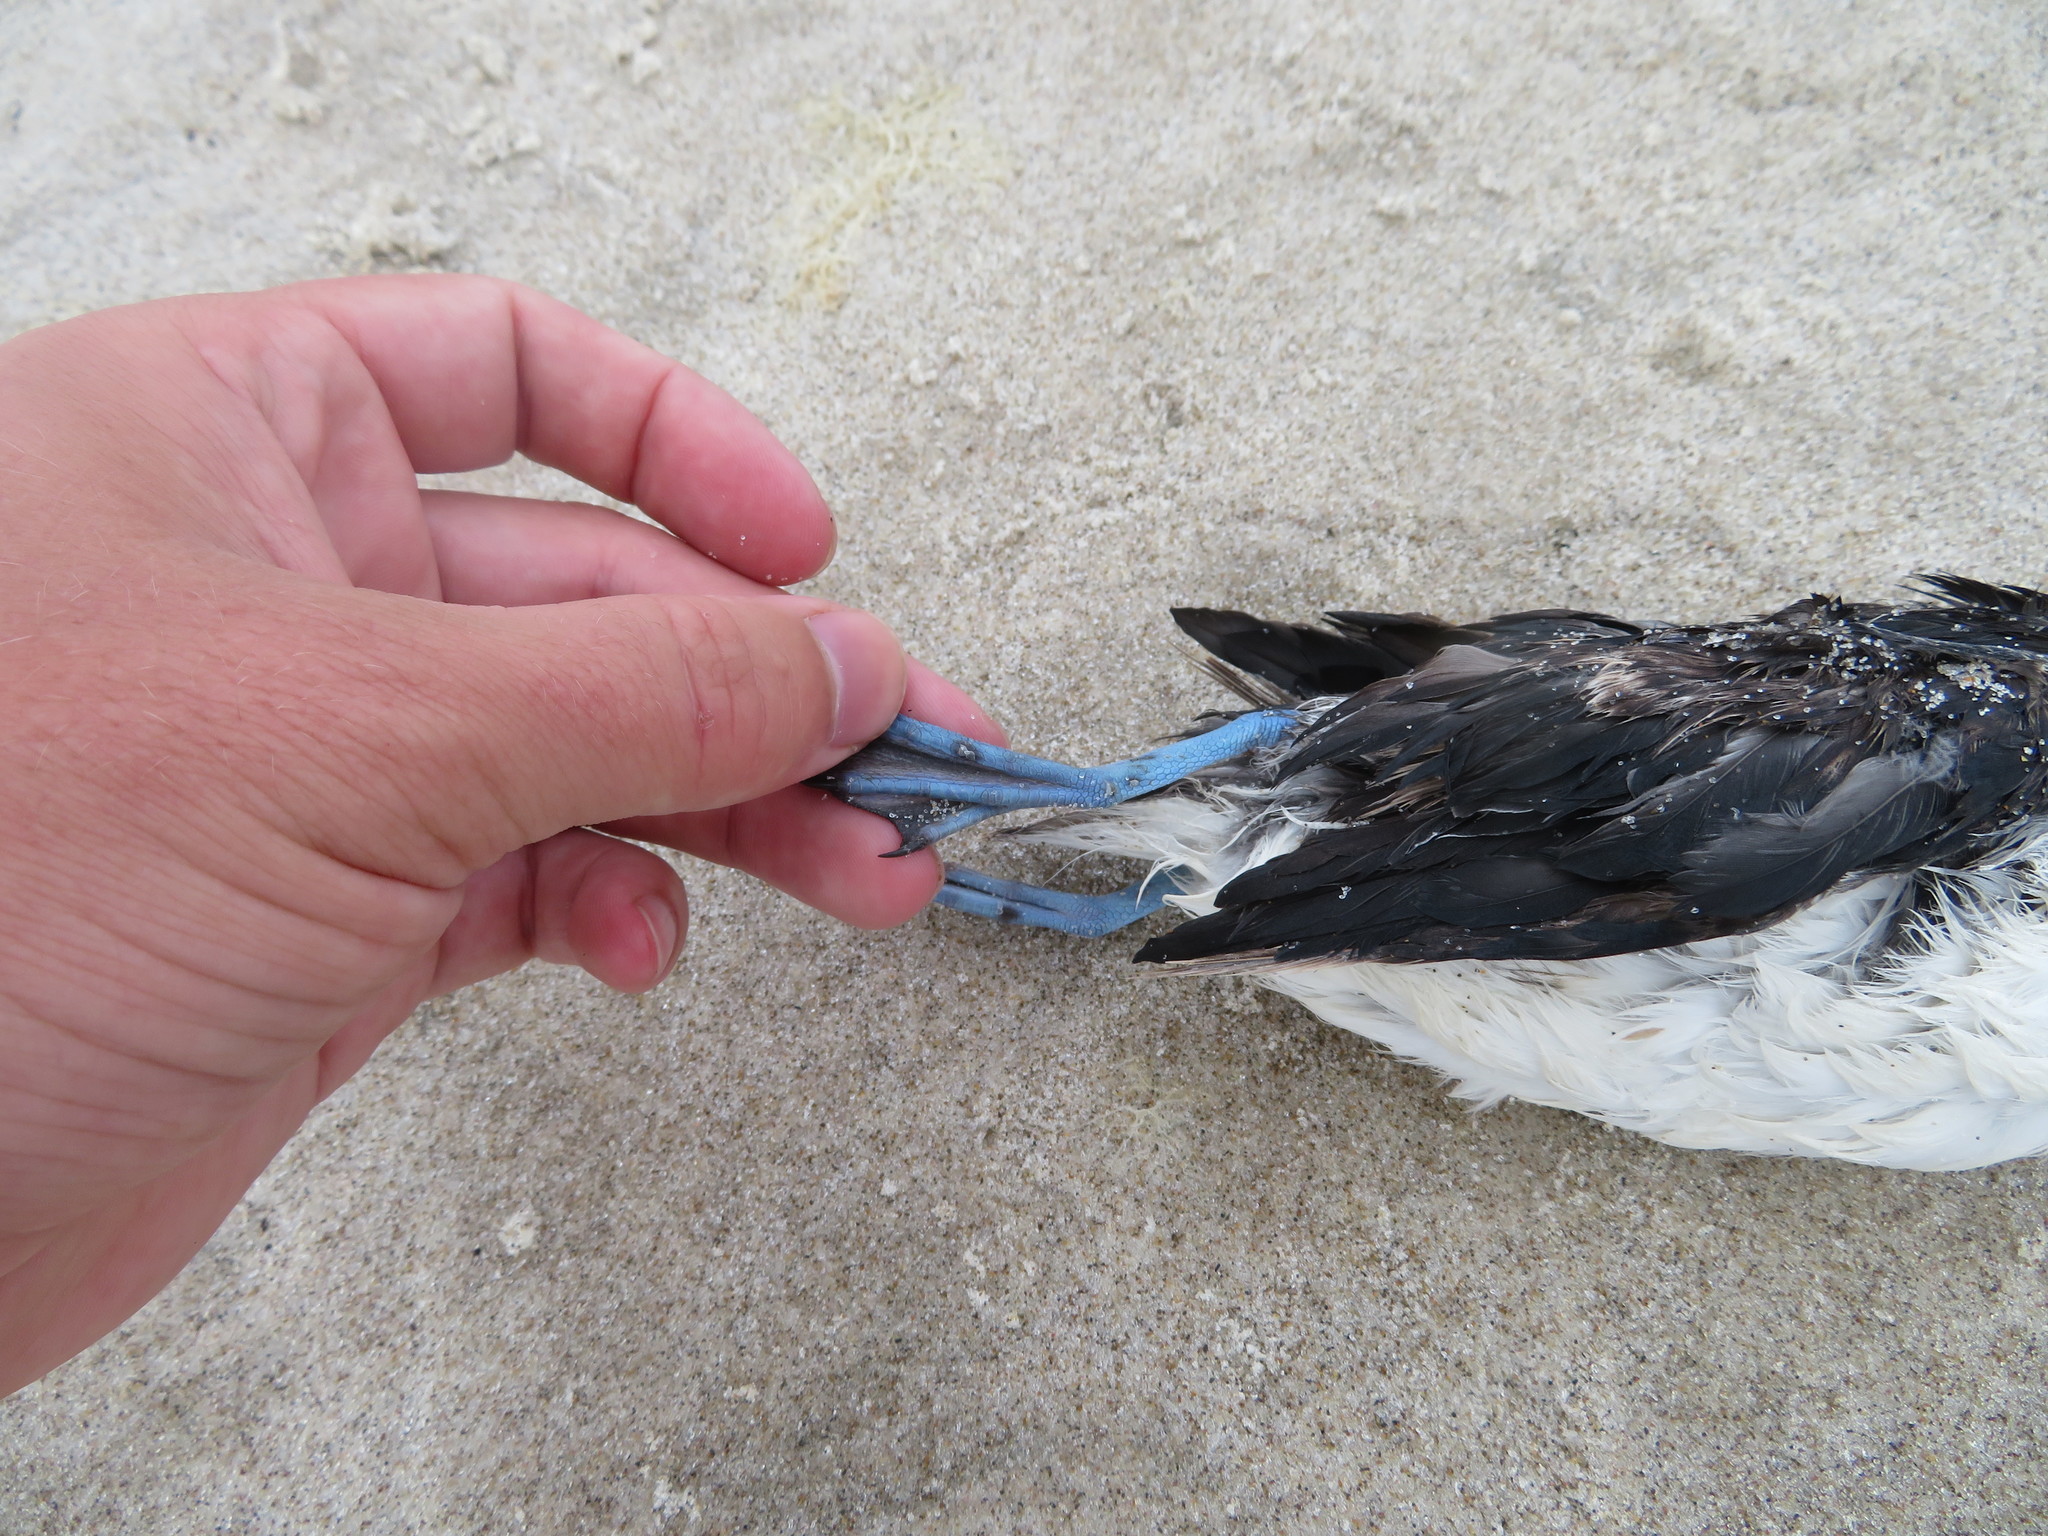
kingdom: Animalia
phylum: Chordata
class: Aves
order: Procellariiformes
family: Pelecanoididae
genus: Pelecanoides
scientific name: Pelecanoides urinatrix
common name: Common diving-petrel
